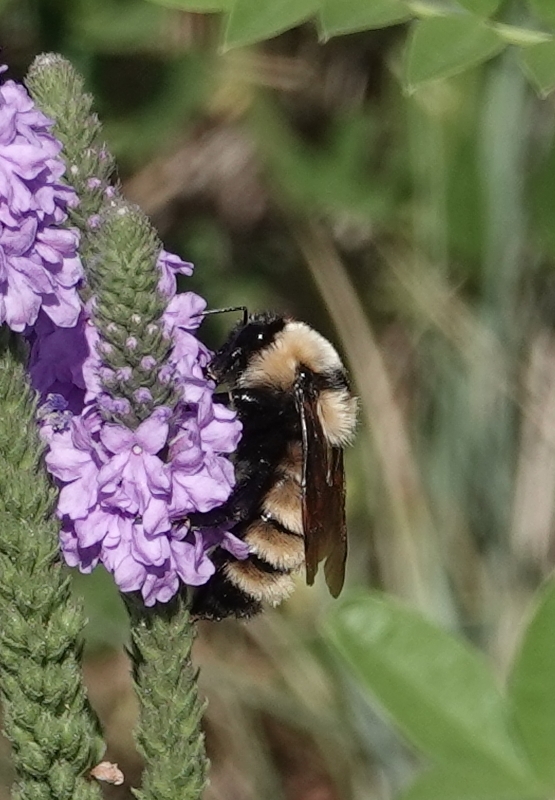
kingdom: Animalia
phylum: Arthropoda
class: Insecta
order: Hymenoptera
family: Apidae
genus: Bombus
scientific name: Bombus fervidus
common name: Yellow bumble bee
